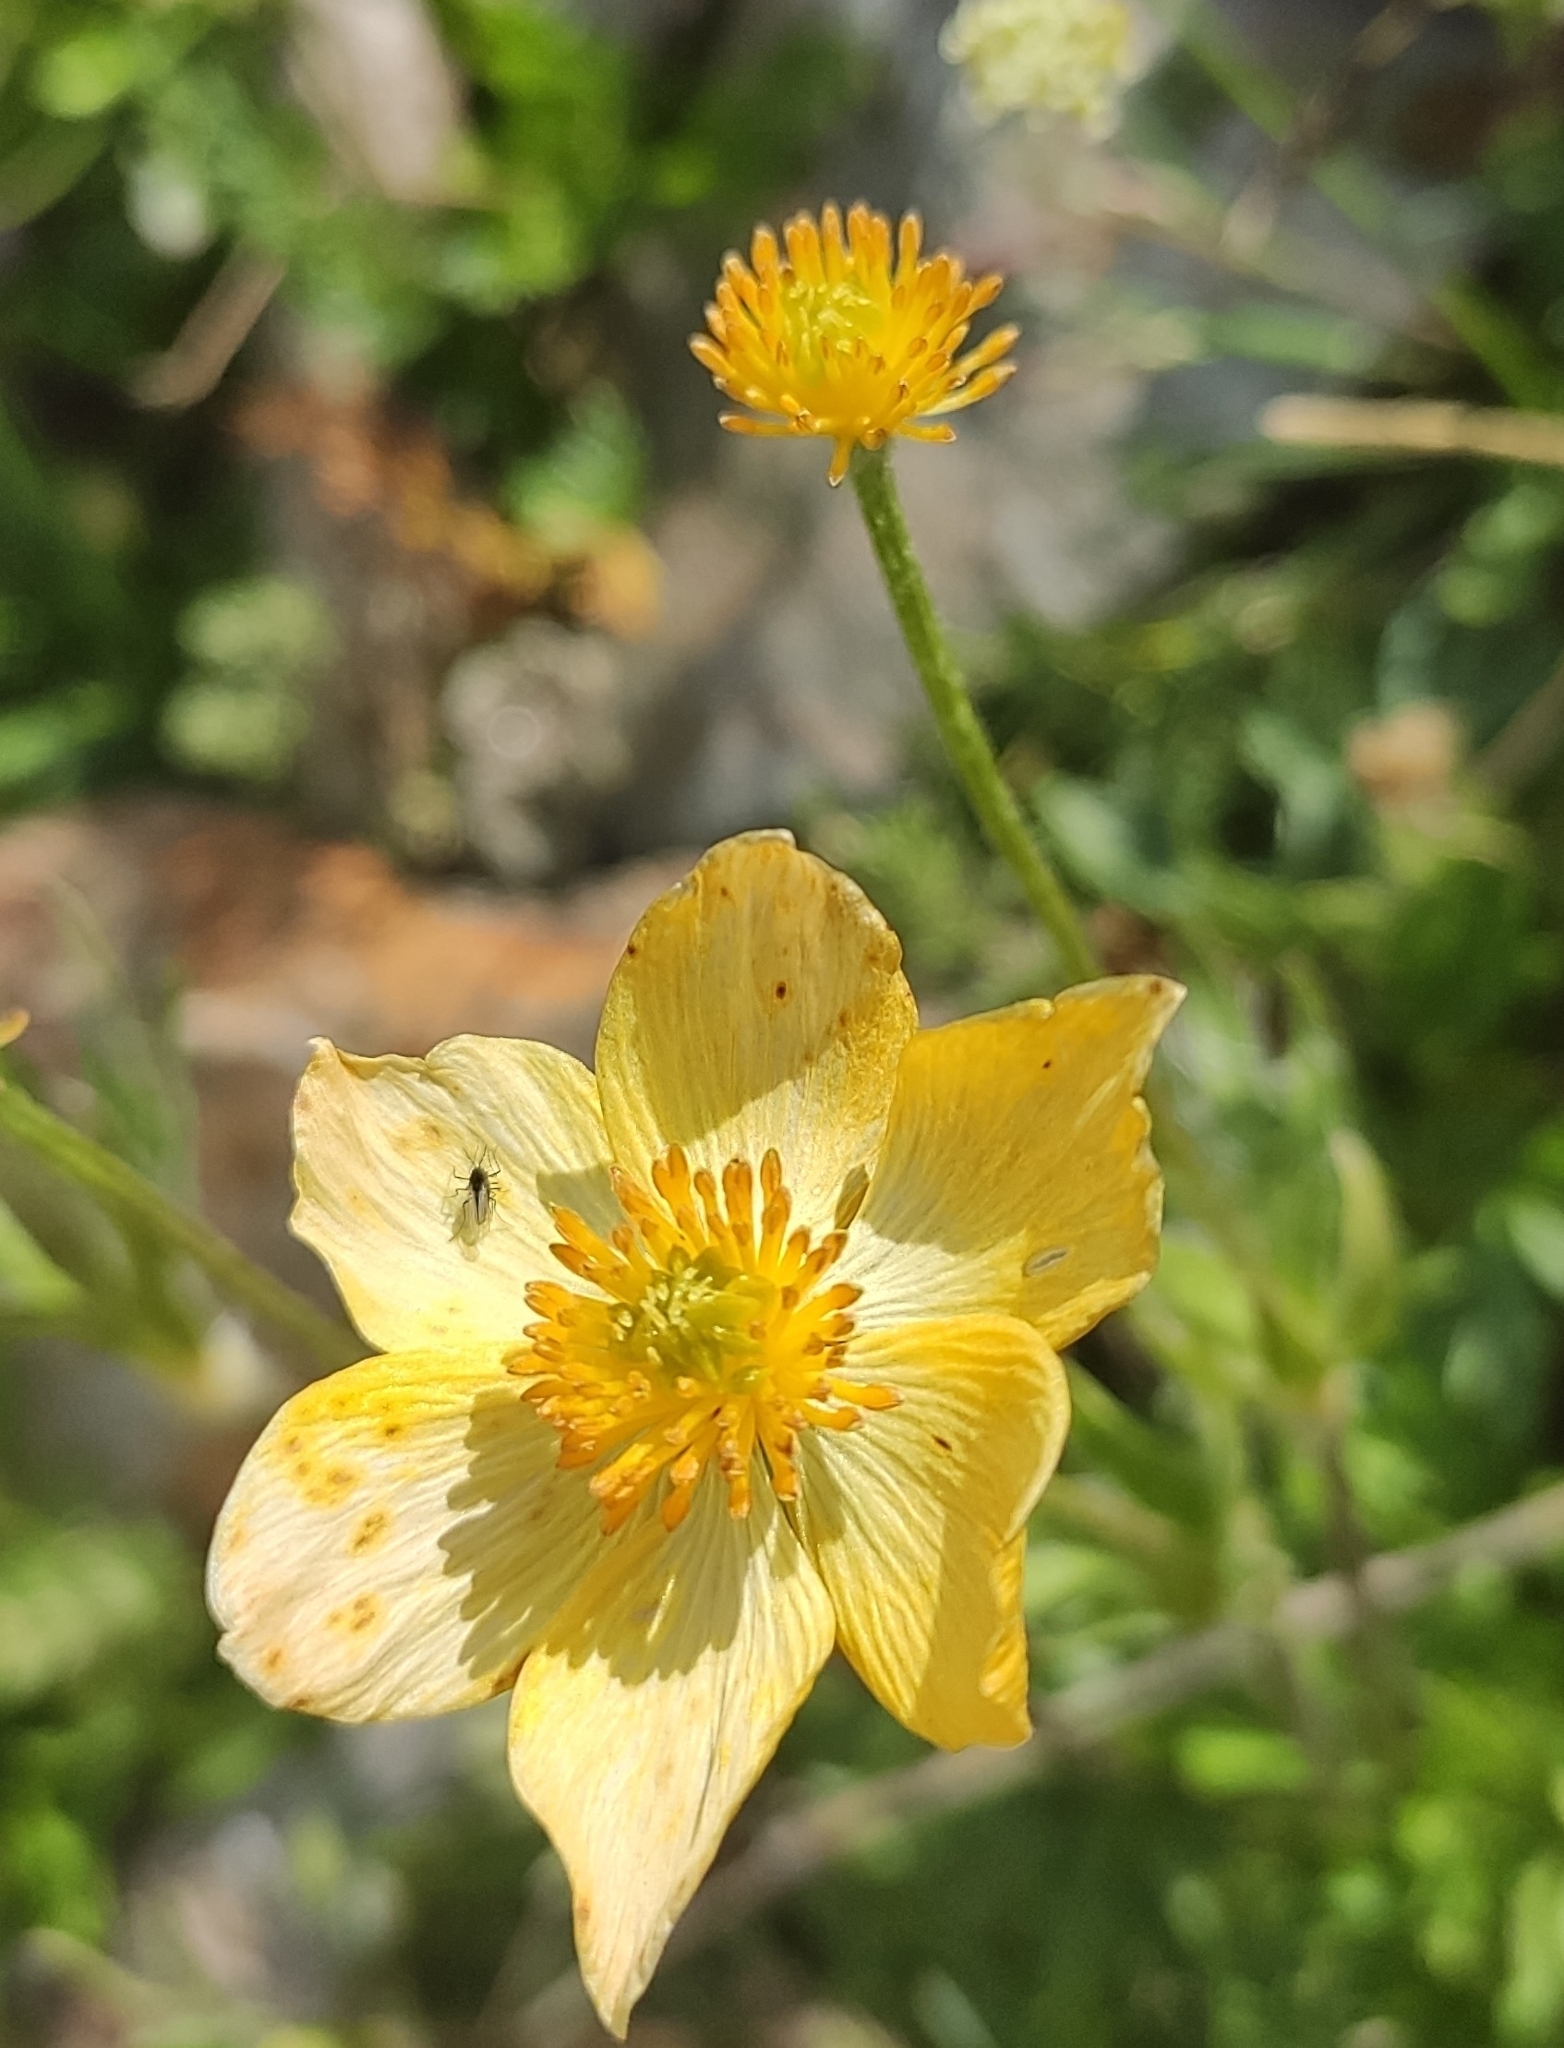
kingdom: Plantae
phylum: Tracheophyta
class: Magnoliopsida
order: Ranunculales
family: Ranunculaceae
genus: Anemonastrum
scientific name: Anemonastrum narcissiflorum
